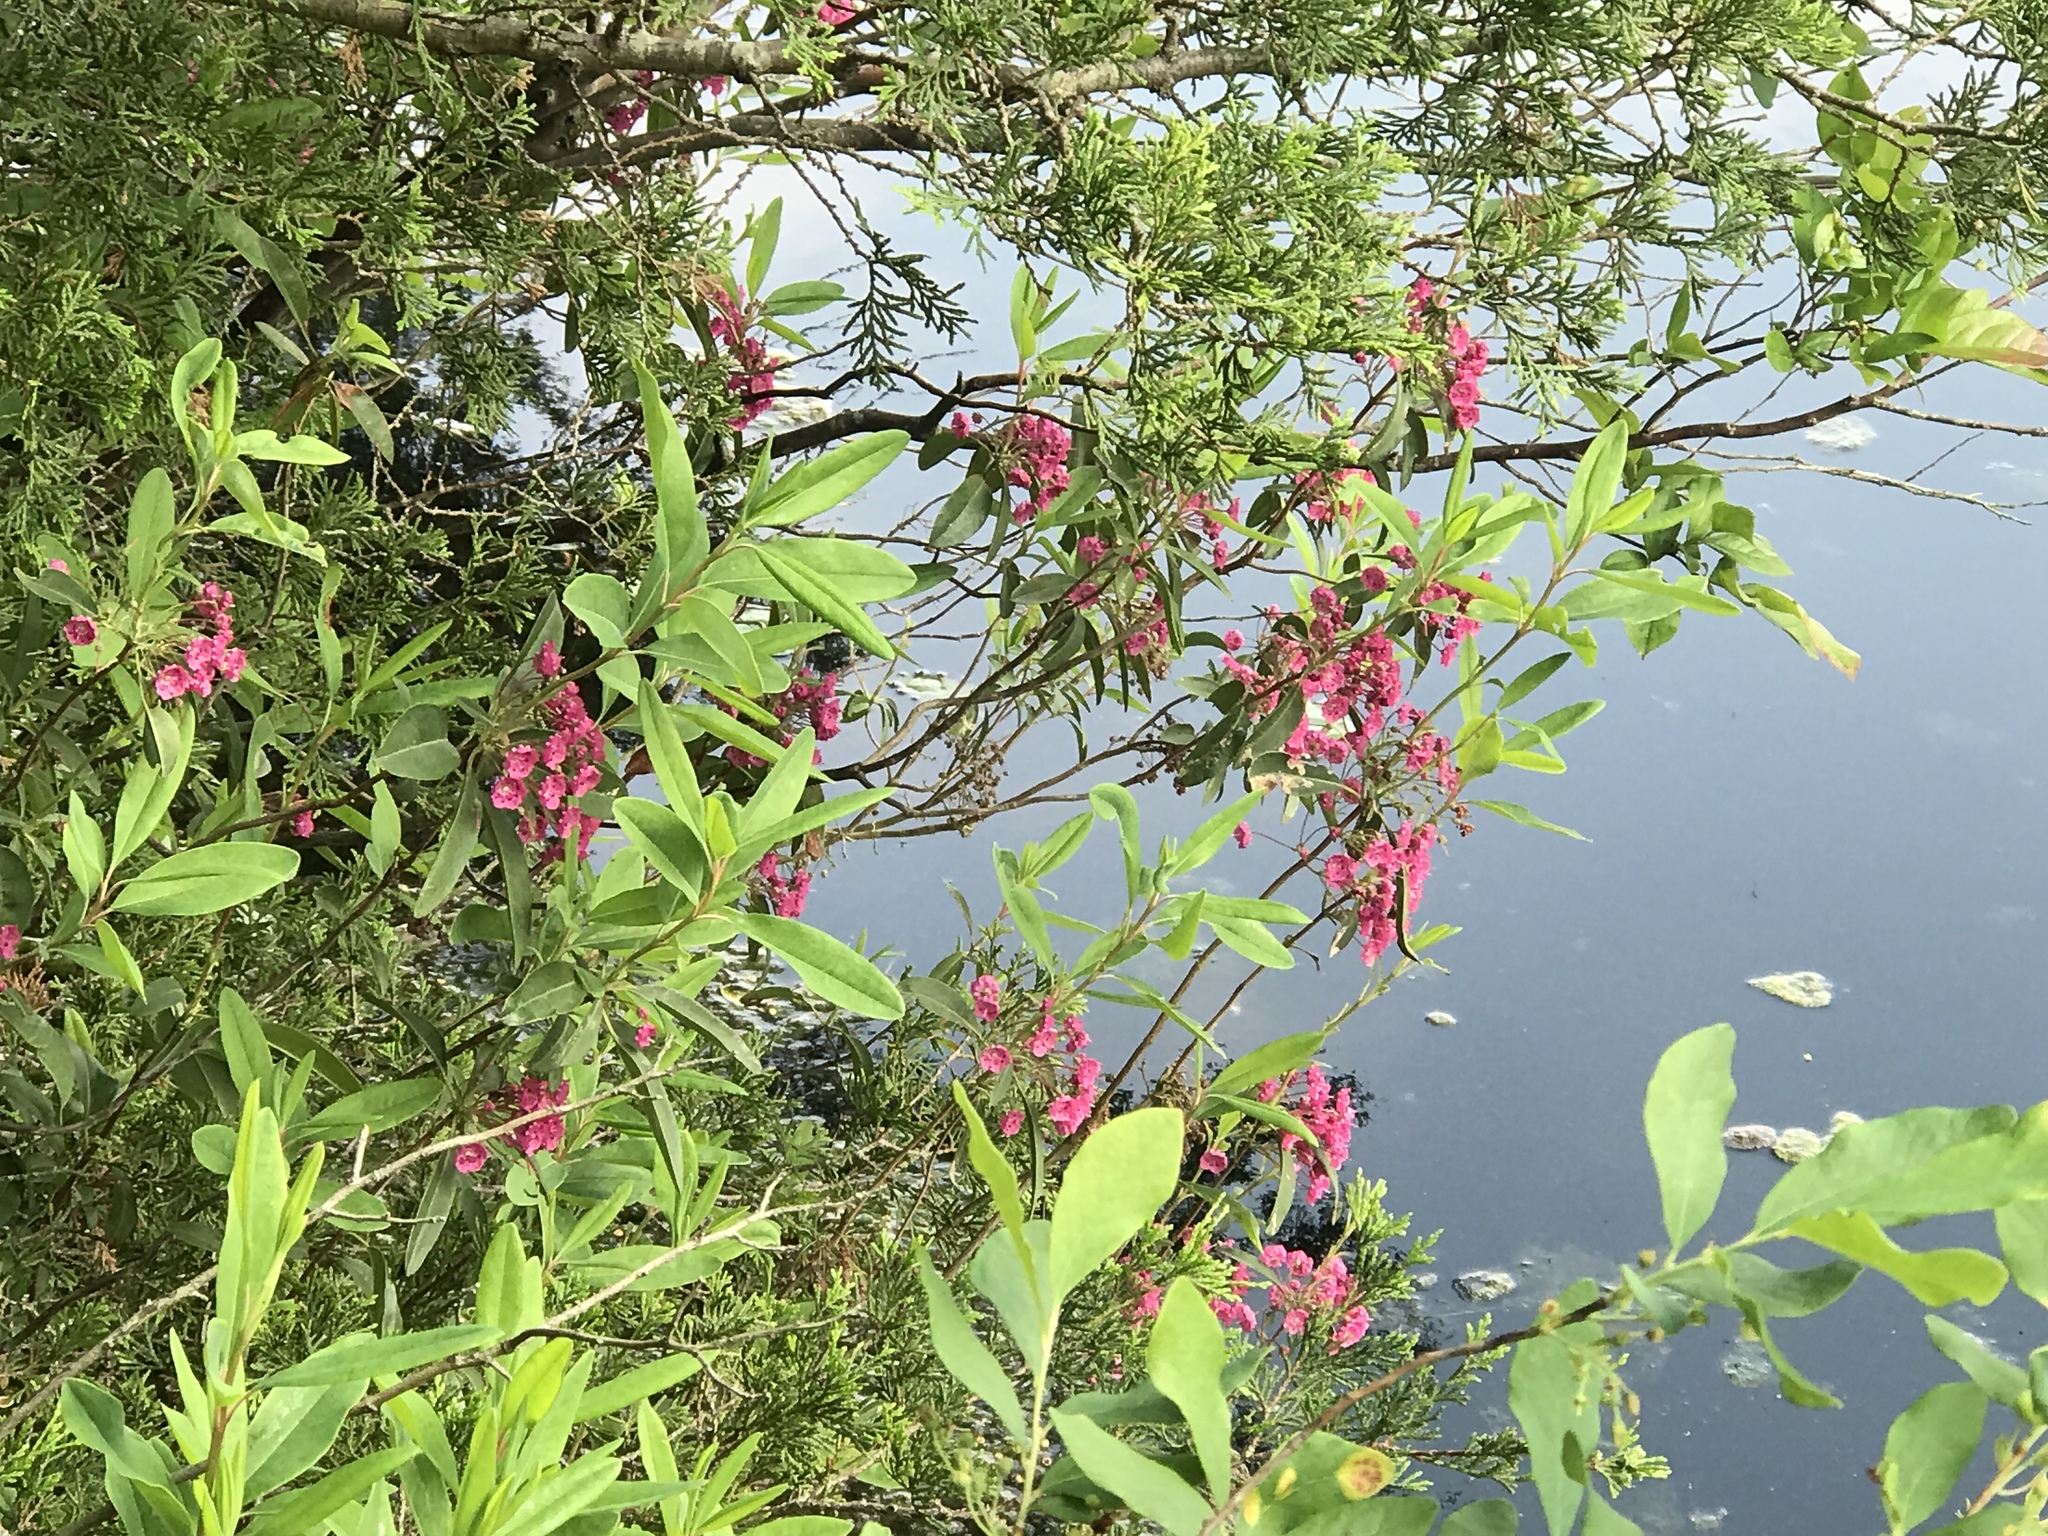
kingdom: Plantae
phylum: Tracheophyta
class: Magnoliopsida
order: Ericales
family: Ericaceae
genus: Kalmia
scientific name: Kalmia angustifolia
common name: Sheep-laurel
